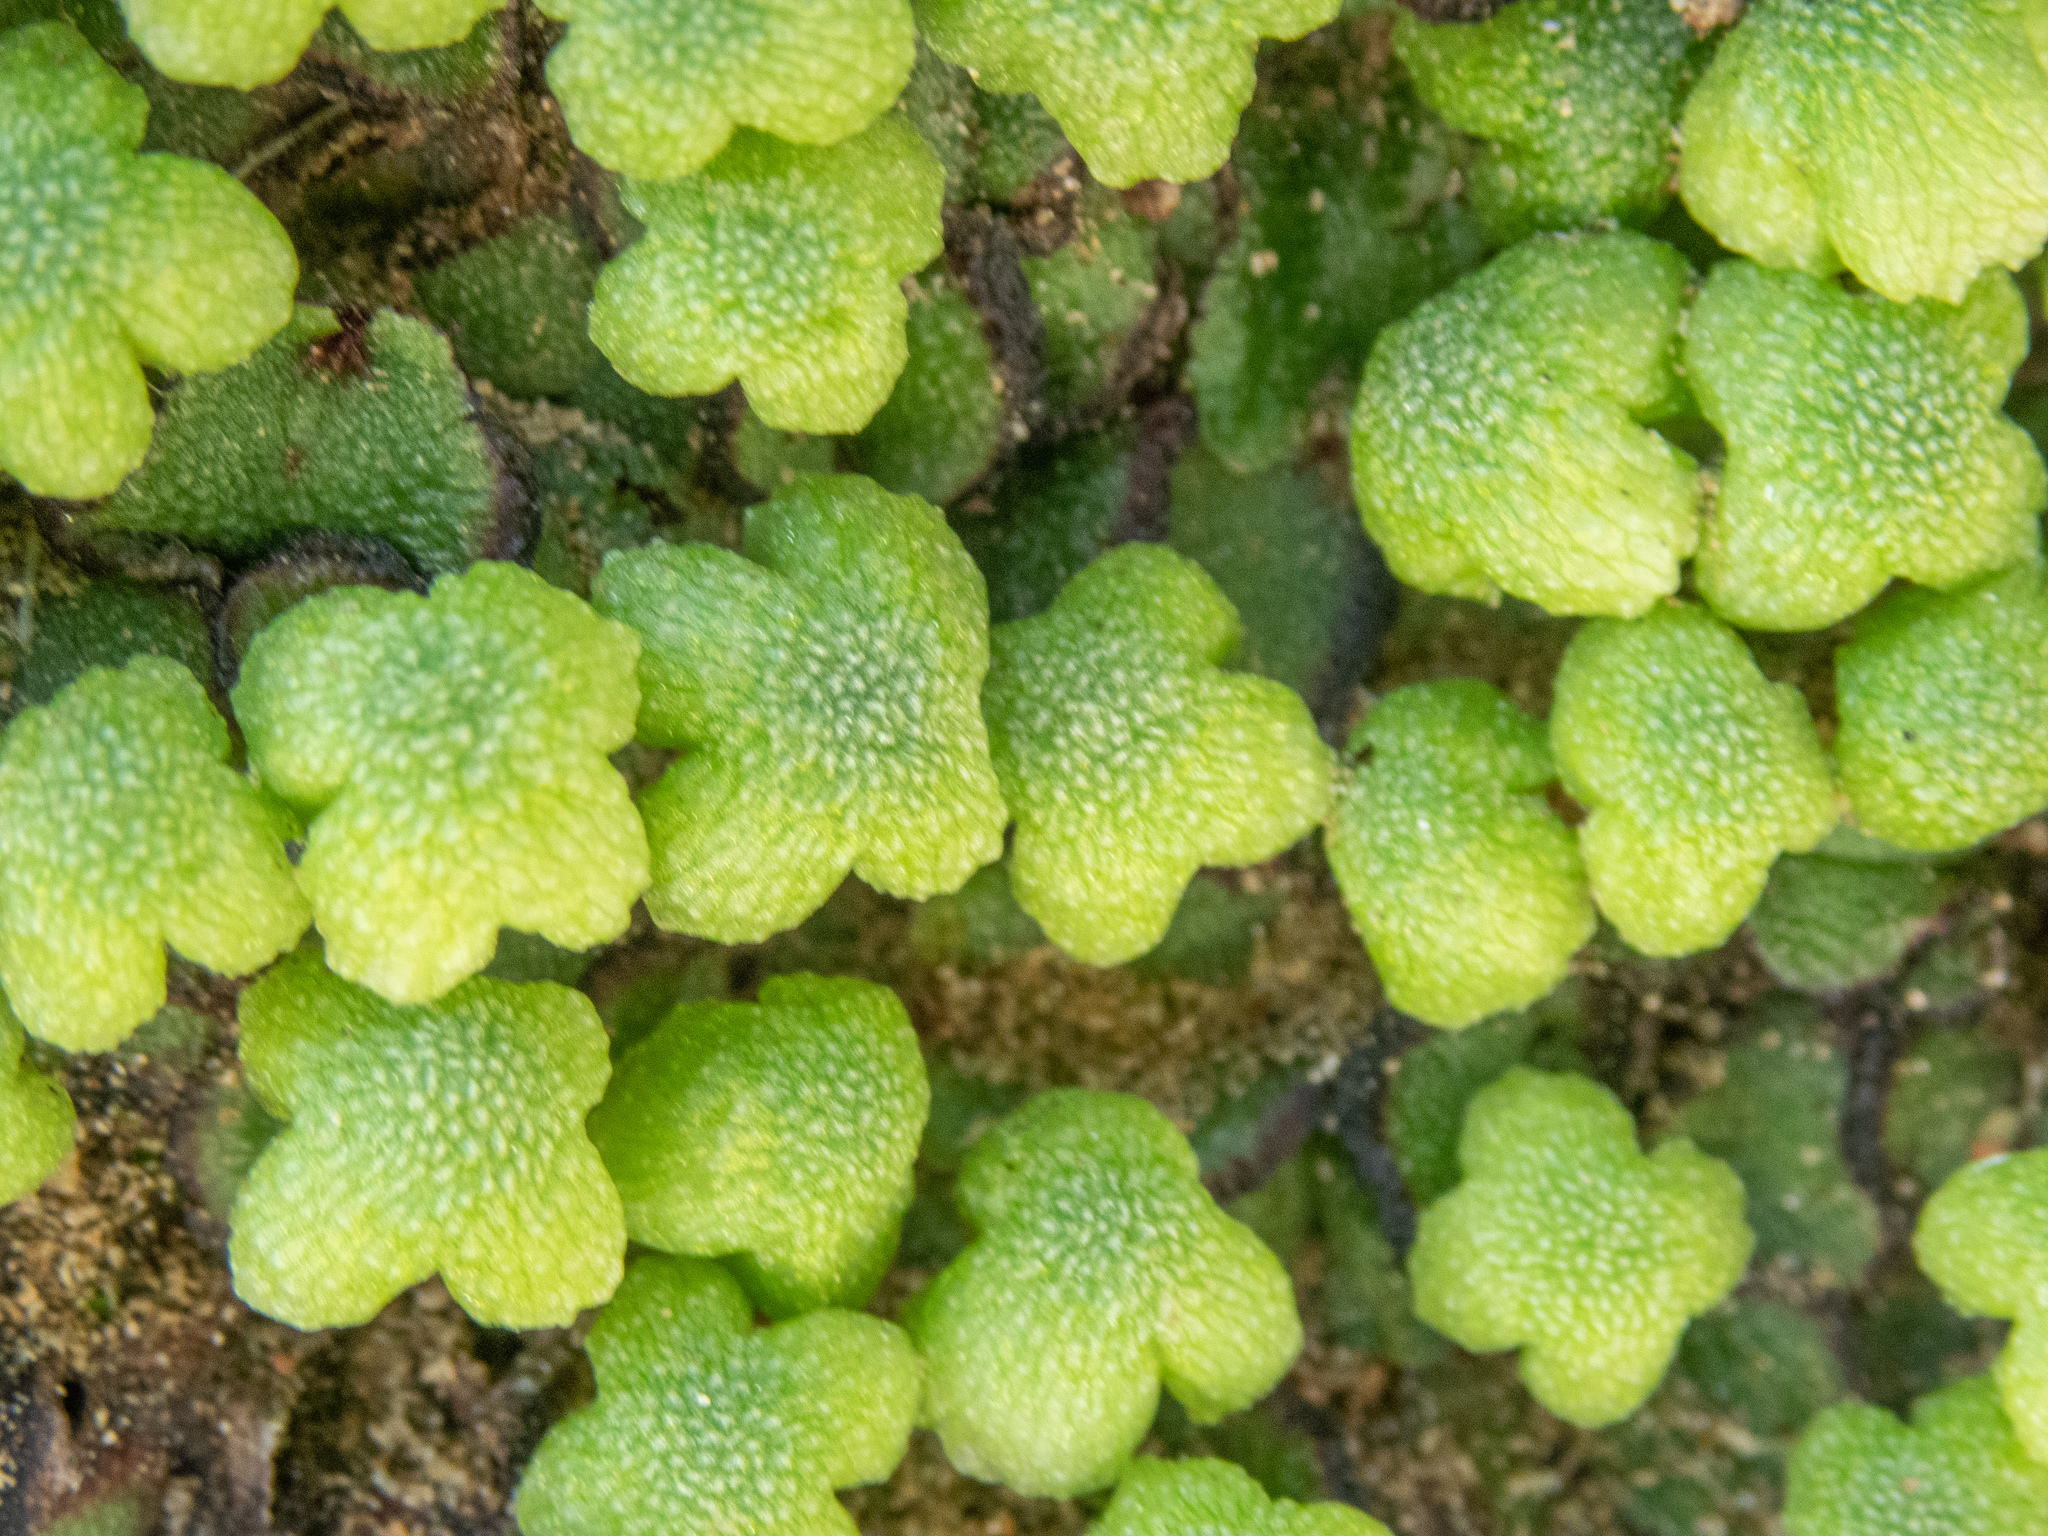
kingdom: Plantae
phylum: Marchantiophyta
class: Marchantiopsida
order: Marchantiales
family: Aytoniaceae
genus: Asterella
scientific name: Asterella californica
